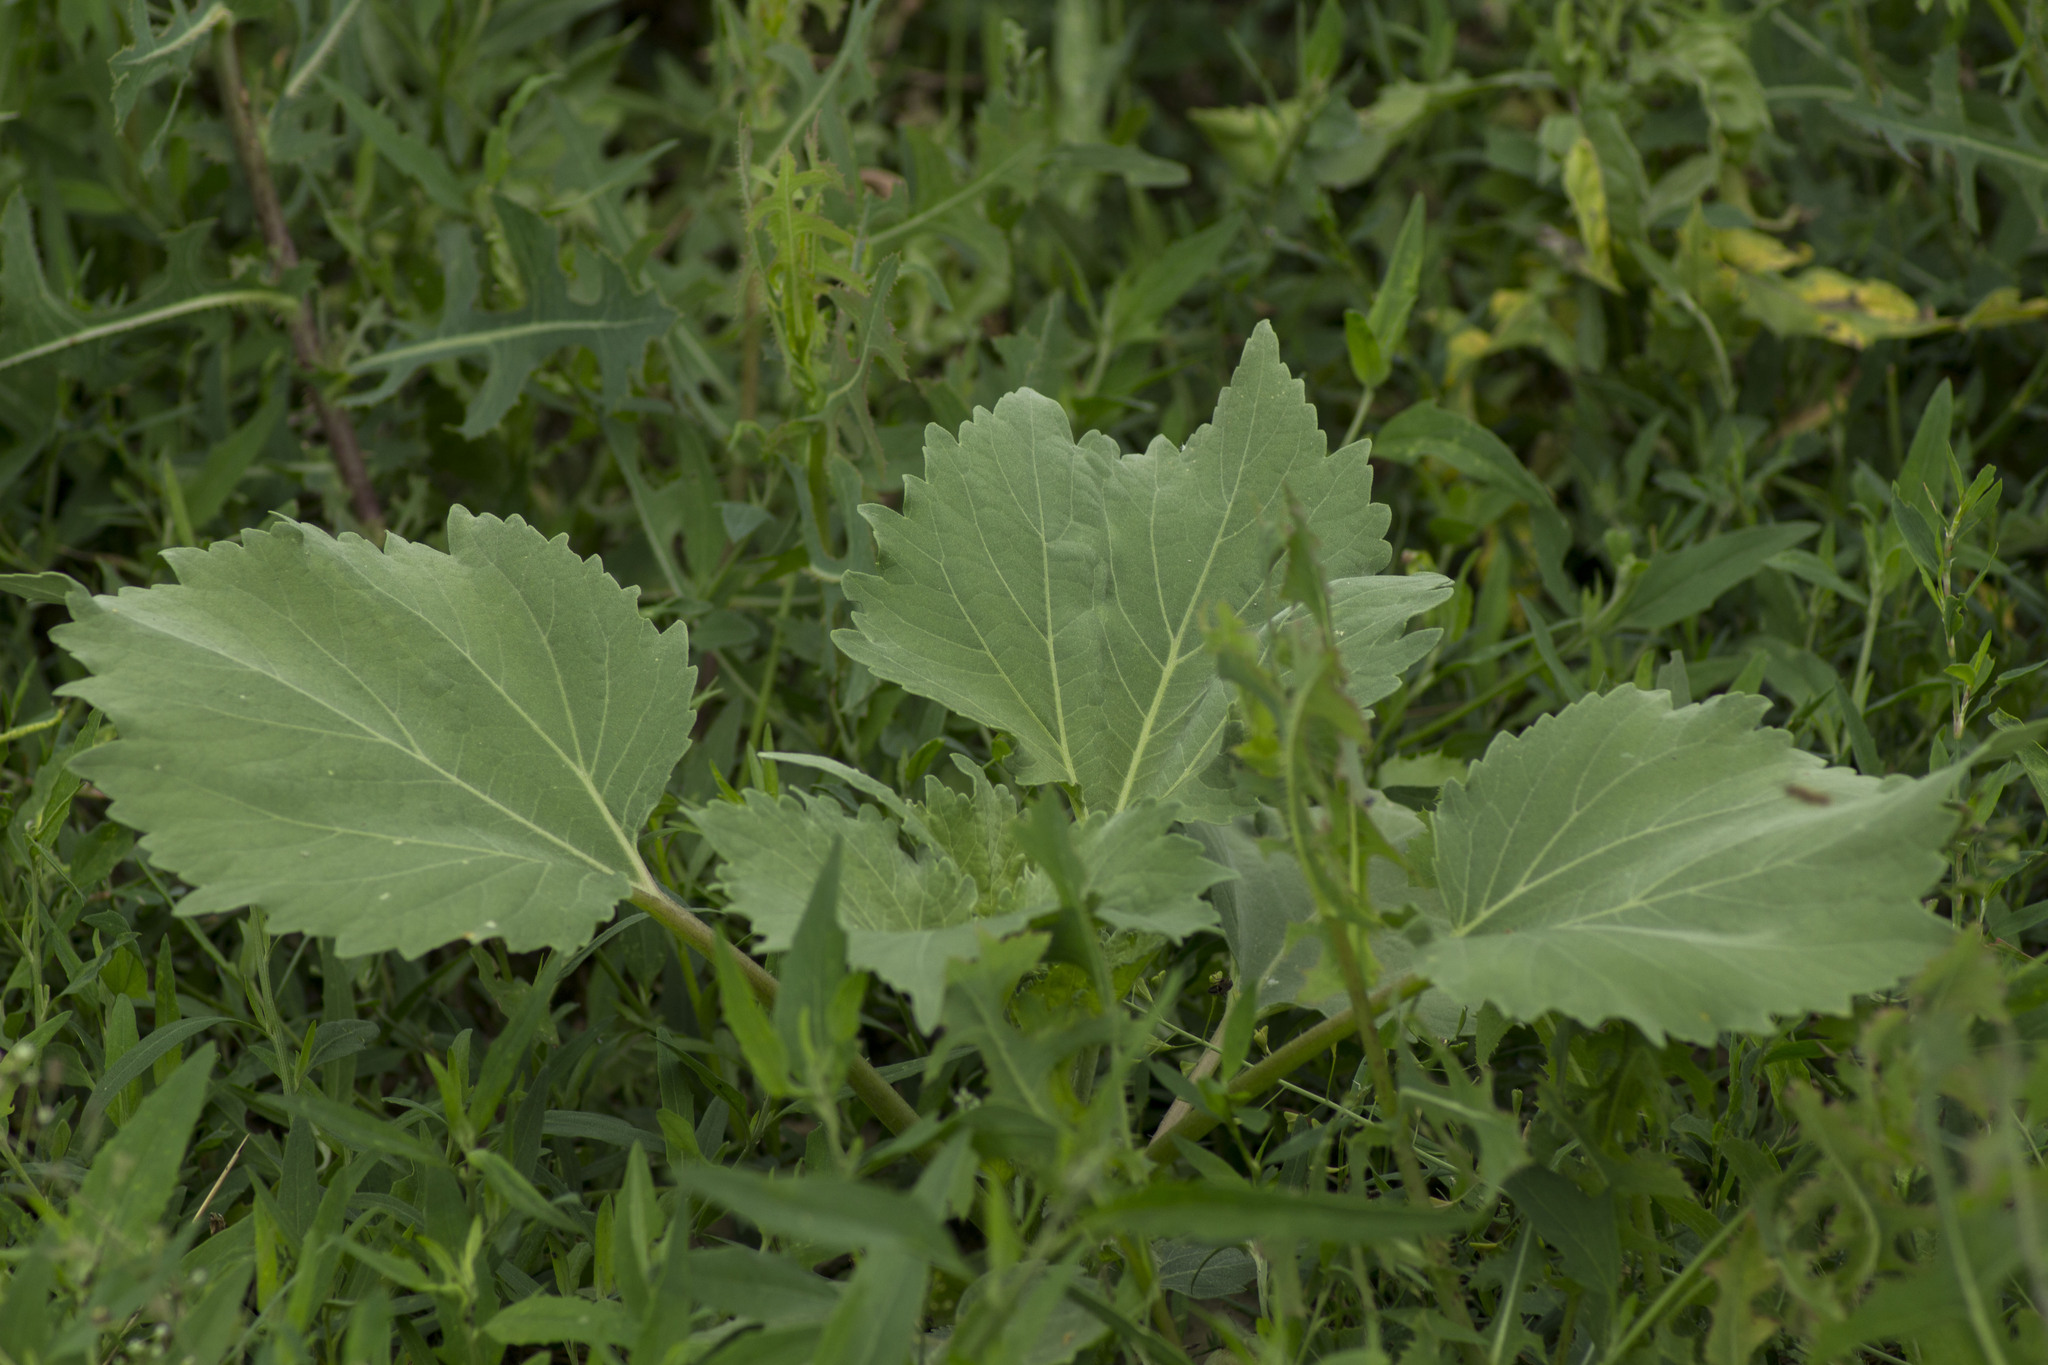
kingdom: Plantae
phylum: Tracheophyta
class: Magnoliopsida
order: Asterales
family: Asteraceae
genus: Cyclachaena
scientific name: Cyclachaena xanthiifolia
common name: Giant sumpweed
